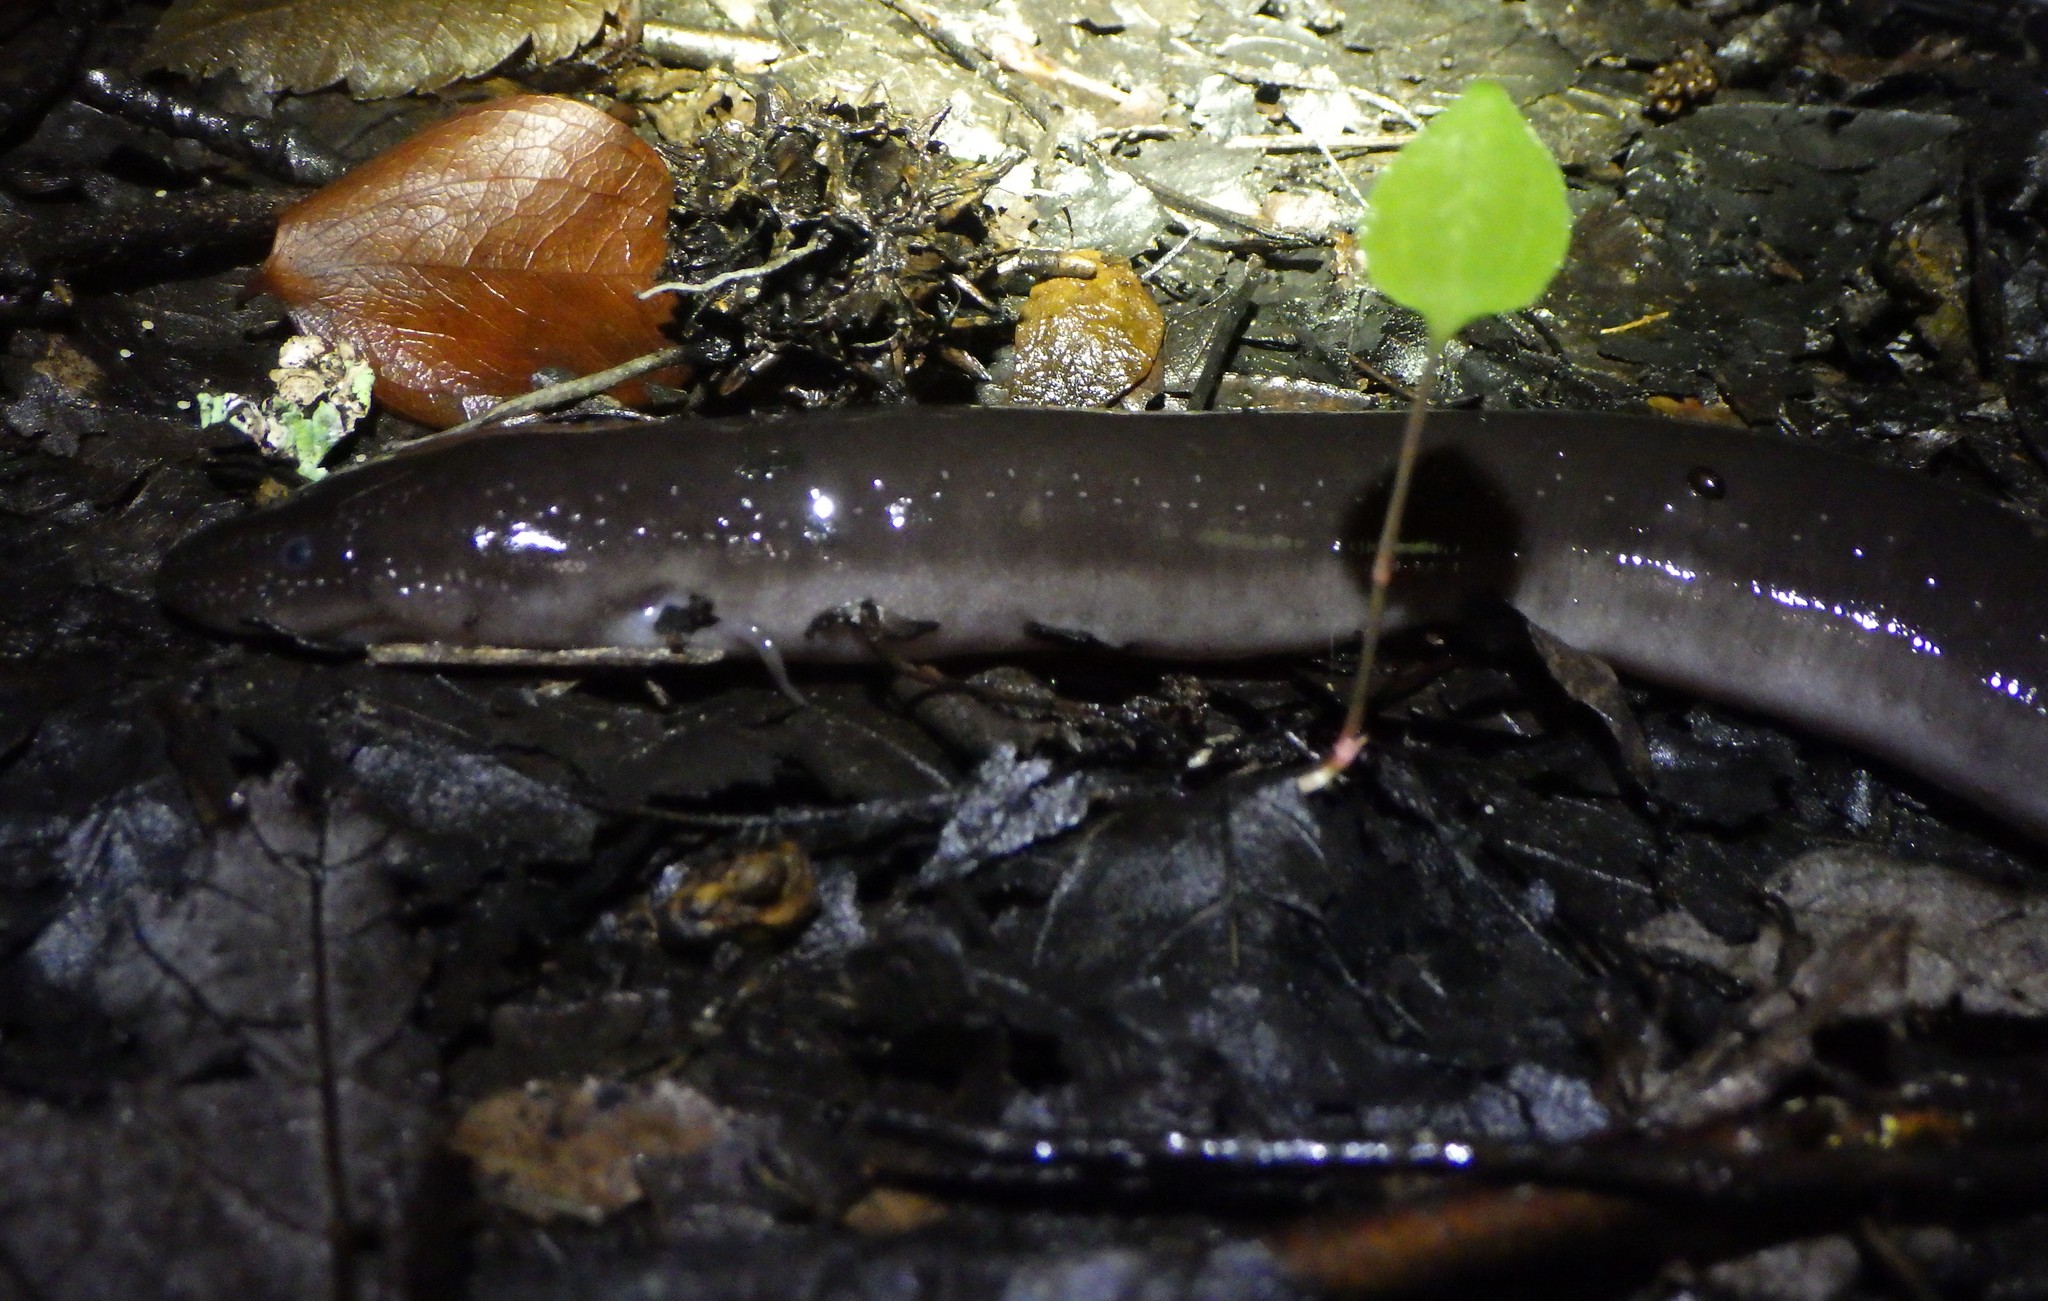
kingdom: Animalia
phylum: Chordata
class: Amphibia
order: Caudata
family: Amphiumidae
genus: Amphiuma
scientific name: Amphiuma means
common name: Two-toed amphiuma
